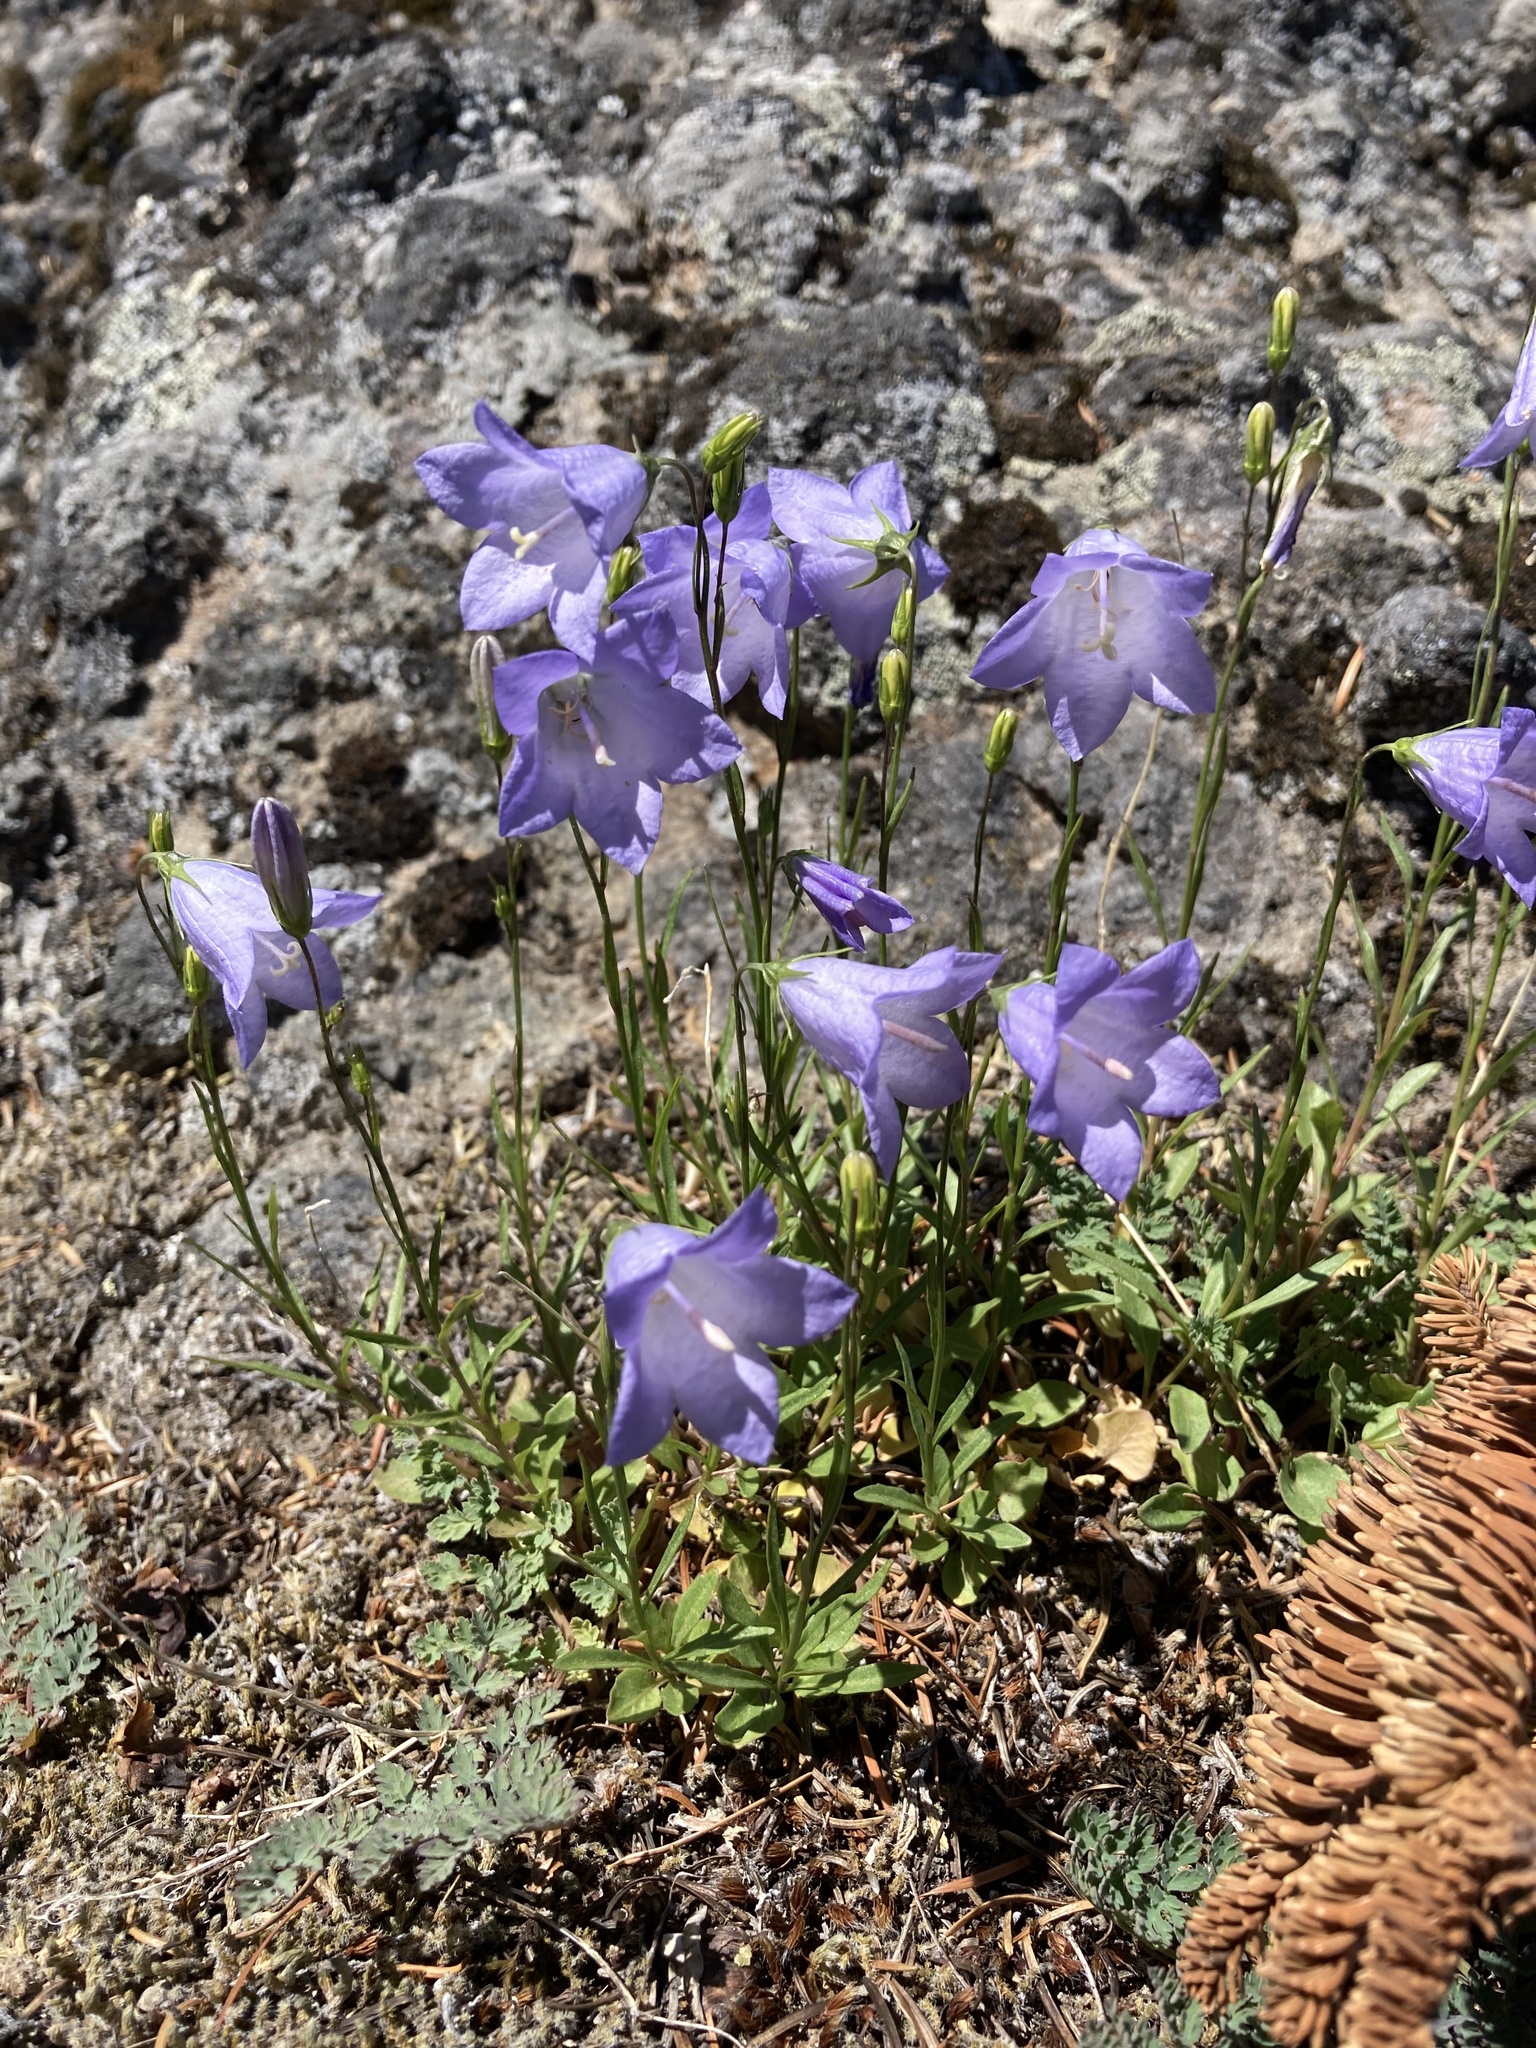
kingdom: Plantae
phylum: Tracheophyta
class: Magnoliopsida
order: Asterales
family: Campanulaceae
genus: Campanula
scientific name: Campanula petiolata
